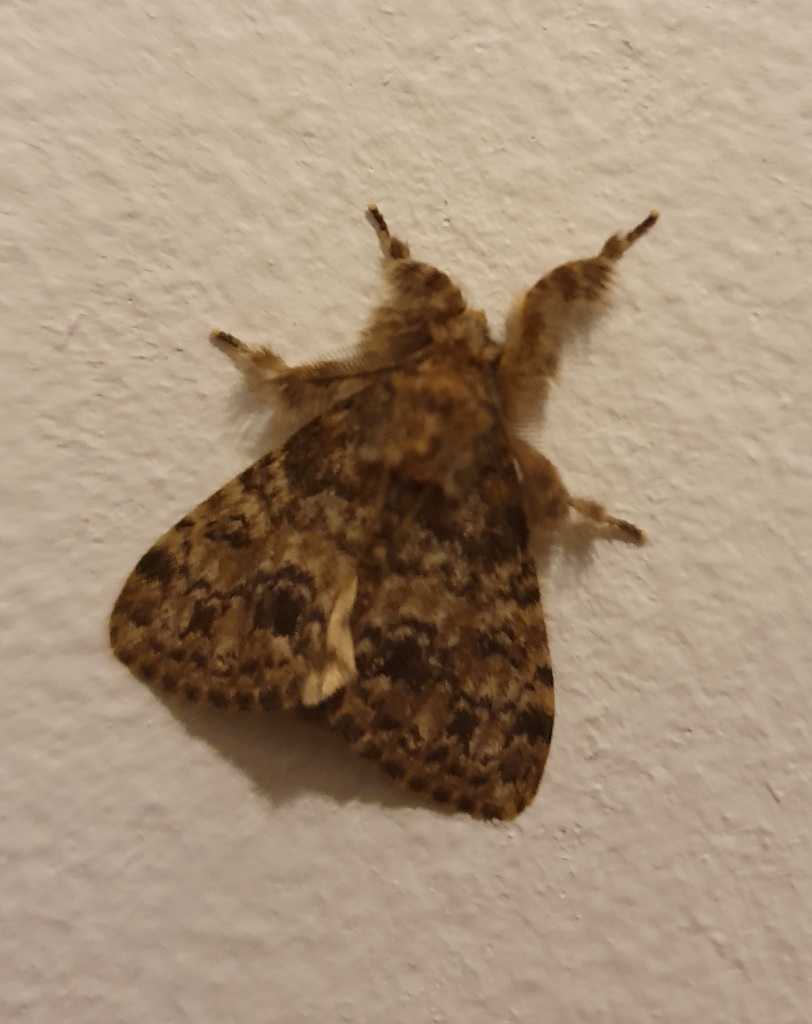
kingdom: Animalia
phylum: Arthropoda
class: Insecta
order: Lepidoptera
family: Erebidae
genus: Dasychira
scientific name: Dasychira extorta
